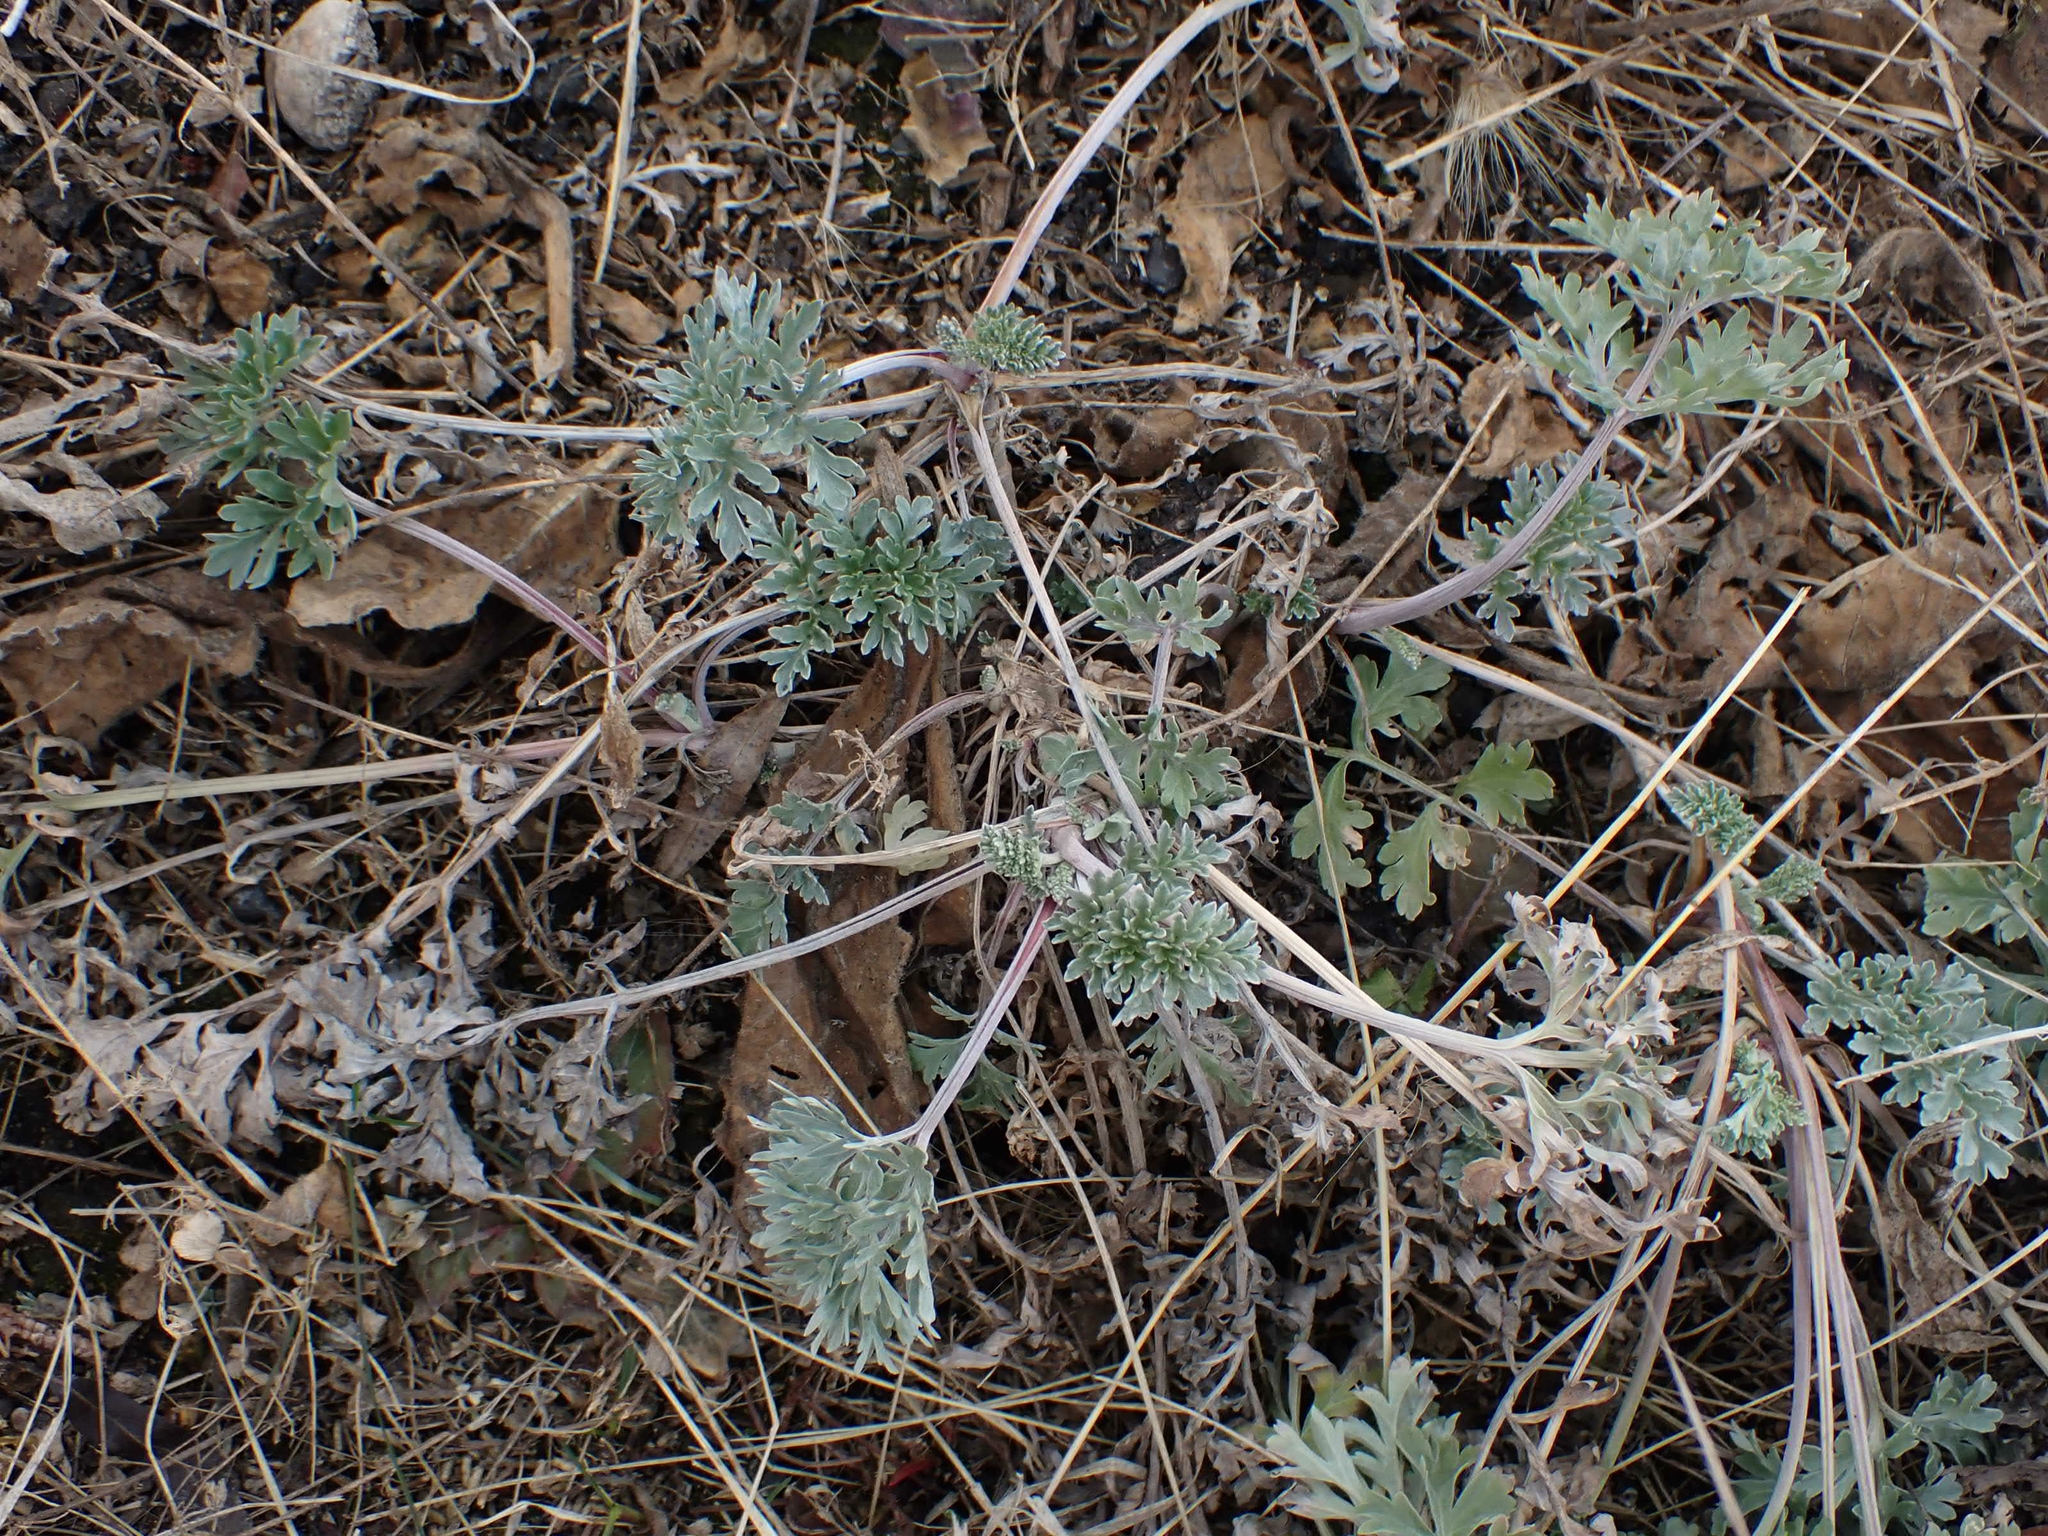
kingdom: Plantae
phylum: Tracheophyta
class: Magnoliopsida
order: Asterales
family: Asteraceae
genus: Artemisia
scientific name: Artemisia absinthium
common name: Wormwood
